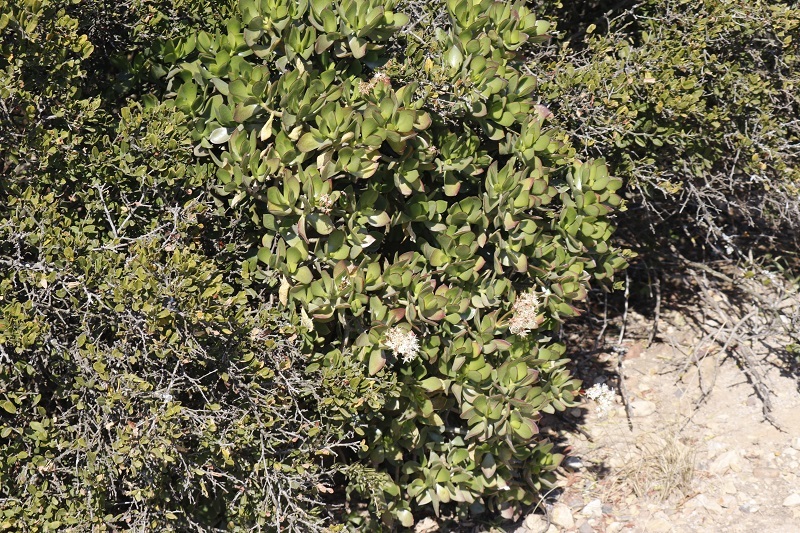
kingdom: Plantae
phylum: Tracheophyta
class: Magnoliopsida
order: Saxifragales
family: Crassulaceae
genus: Crassula
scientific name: Crassula ovata
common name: Jade plant
